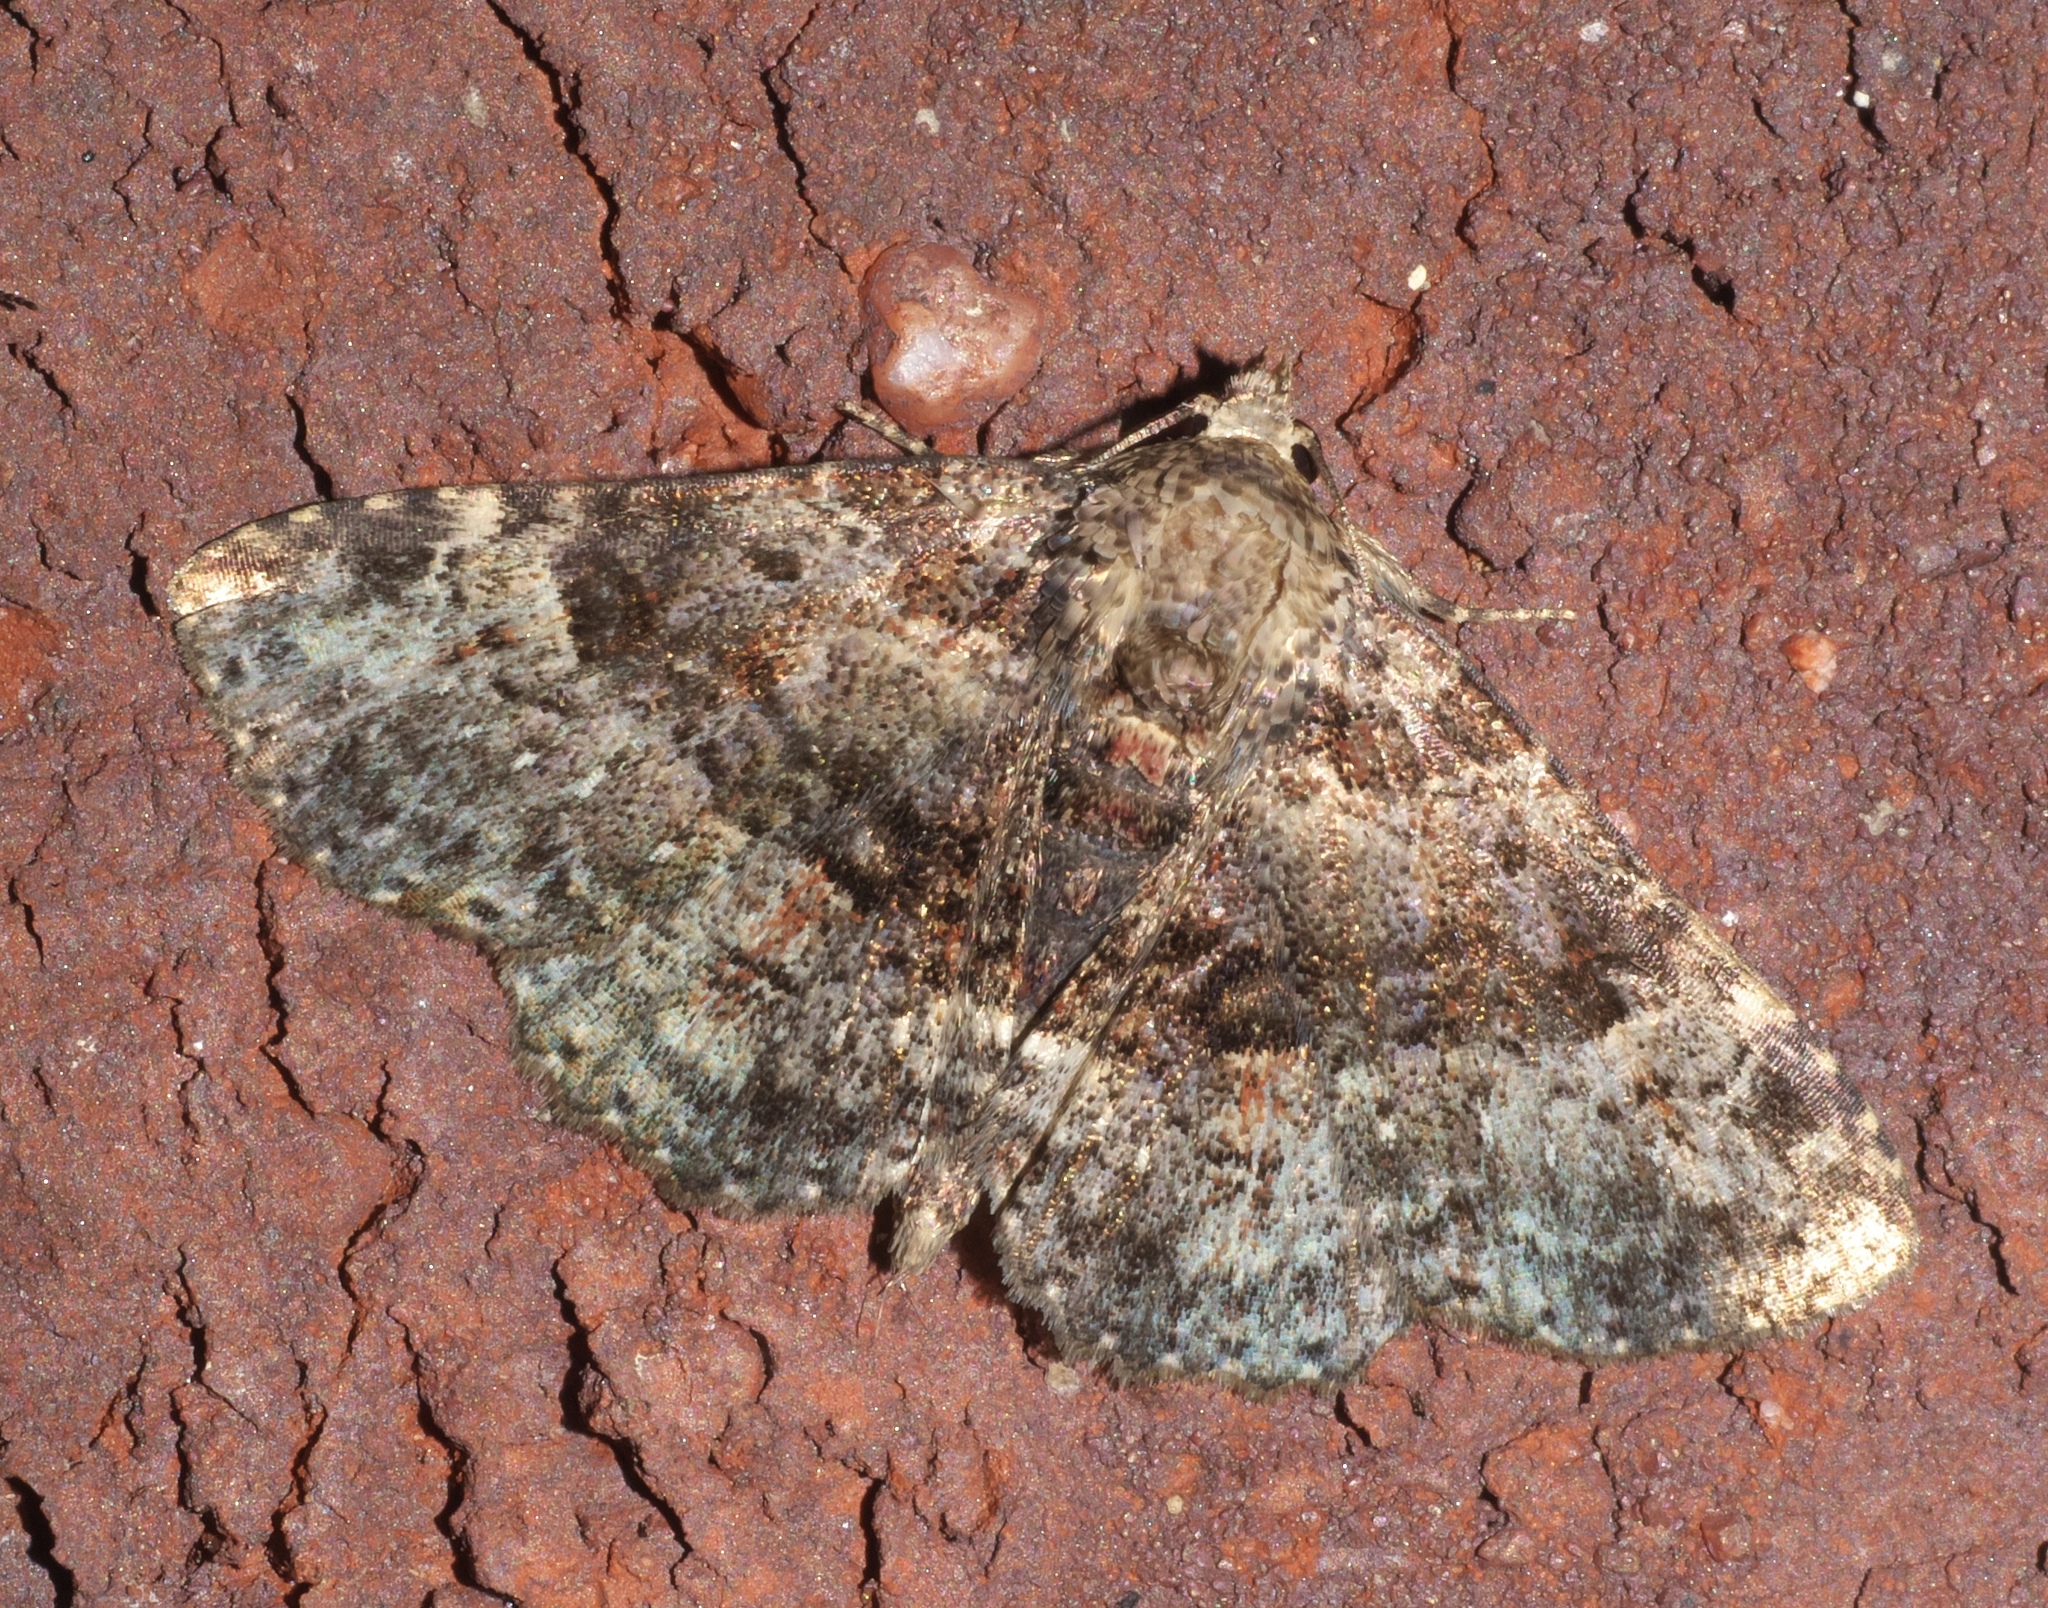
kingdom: Animalia
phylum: Arthropoda
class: Insecta
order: Lepidoptera
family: Erebidae
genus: Metalectra
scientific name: Metalectra discalis
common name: Common fungus moth
